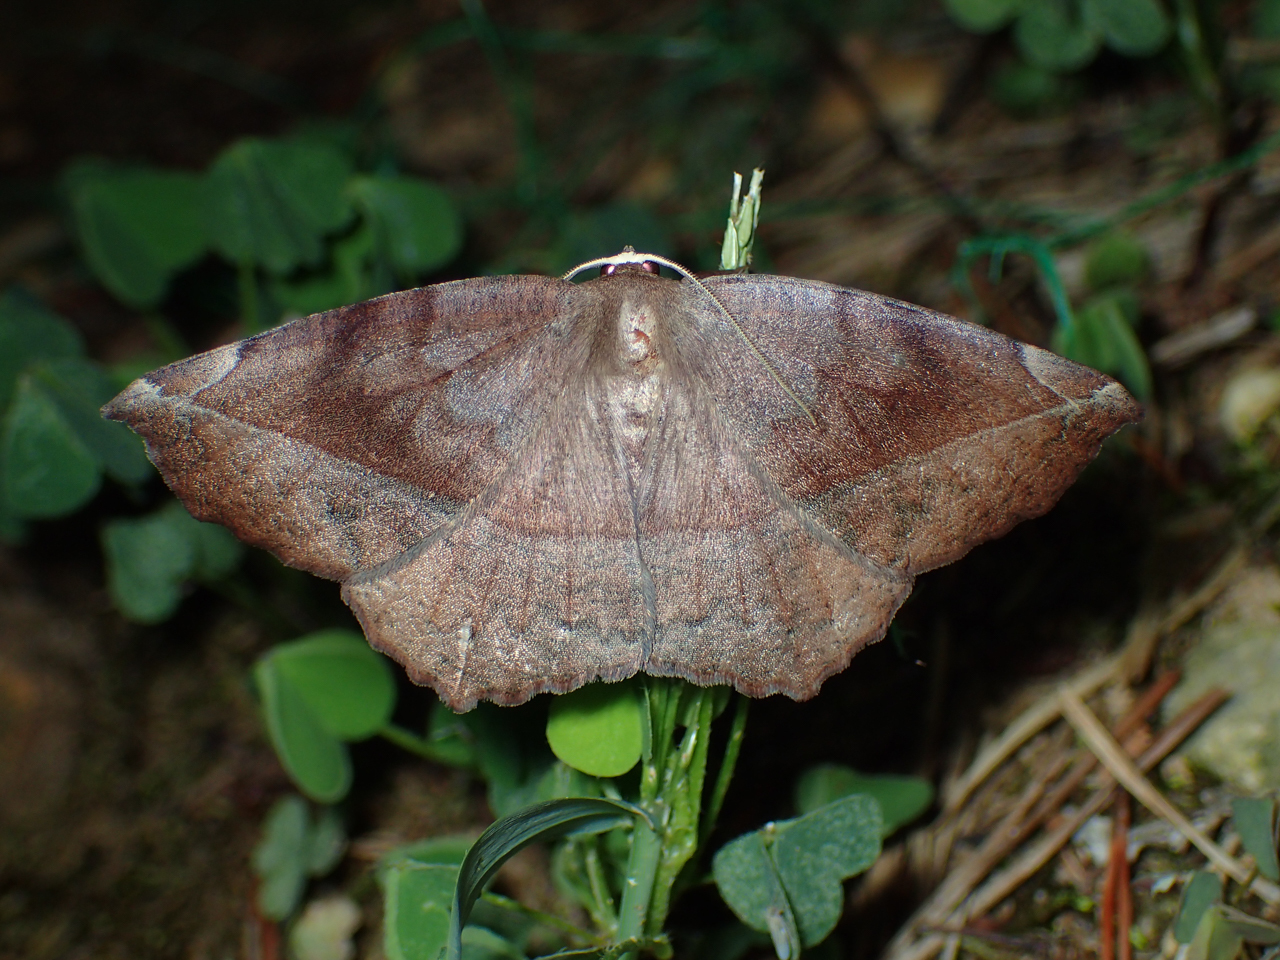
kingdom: Animalia
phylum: Arthropoda
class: Insecta
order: Lepidoptera
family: Geometridae
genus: Eutrapela
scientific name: Eutrapela clemataria
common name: Curved-toothed geometer
